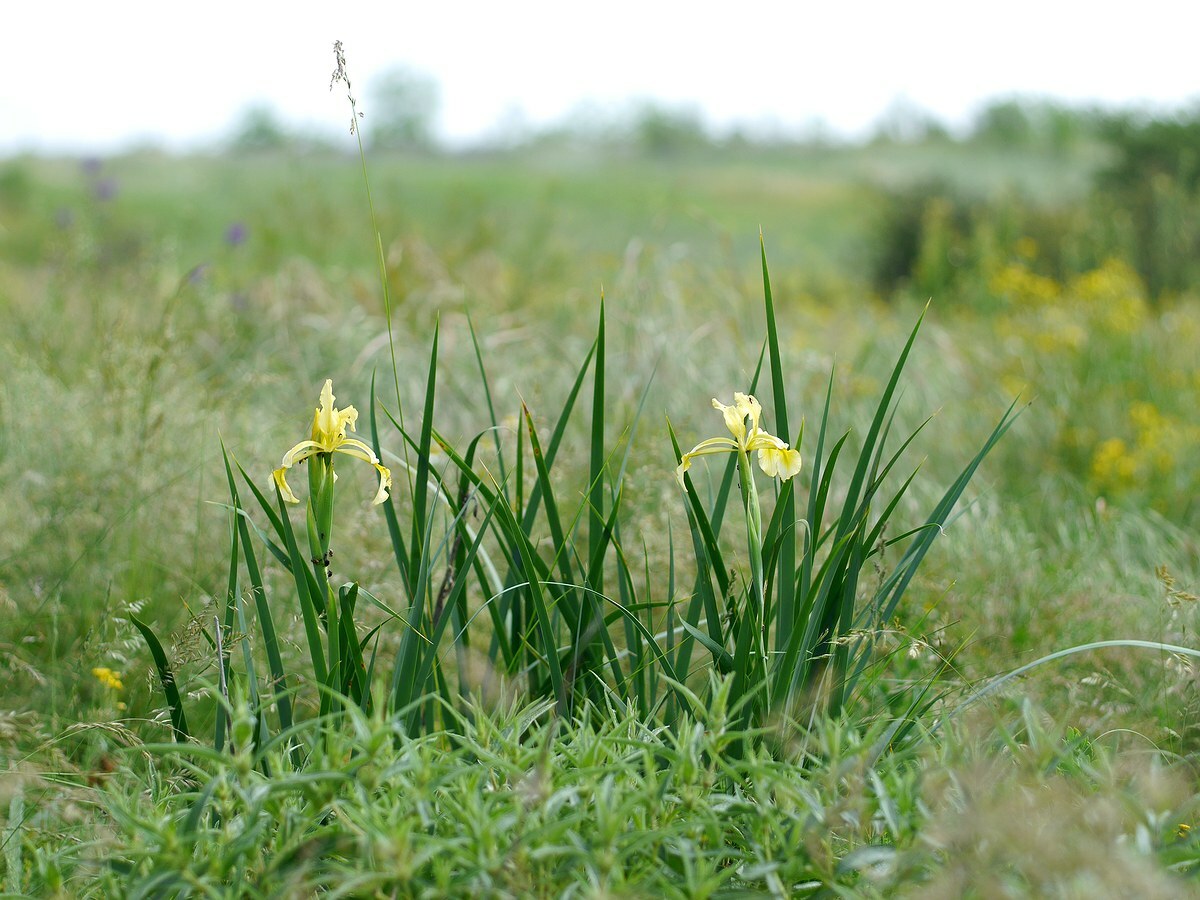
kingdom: Plantae
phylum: Tracheophyta
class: Liliopsida
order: Asparagales
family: Iridaceae
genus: Iris
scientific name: Iris halophila
